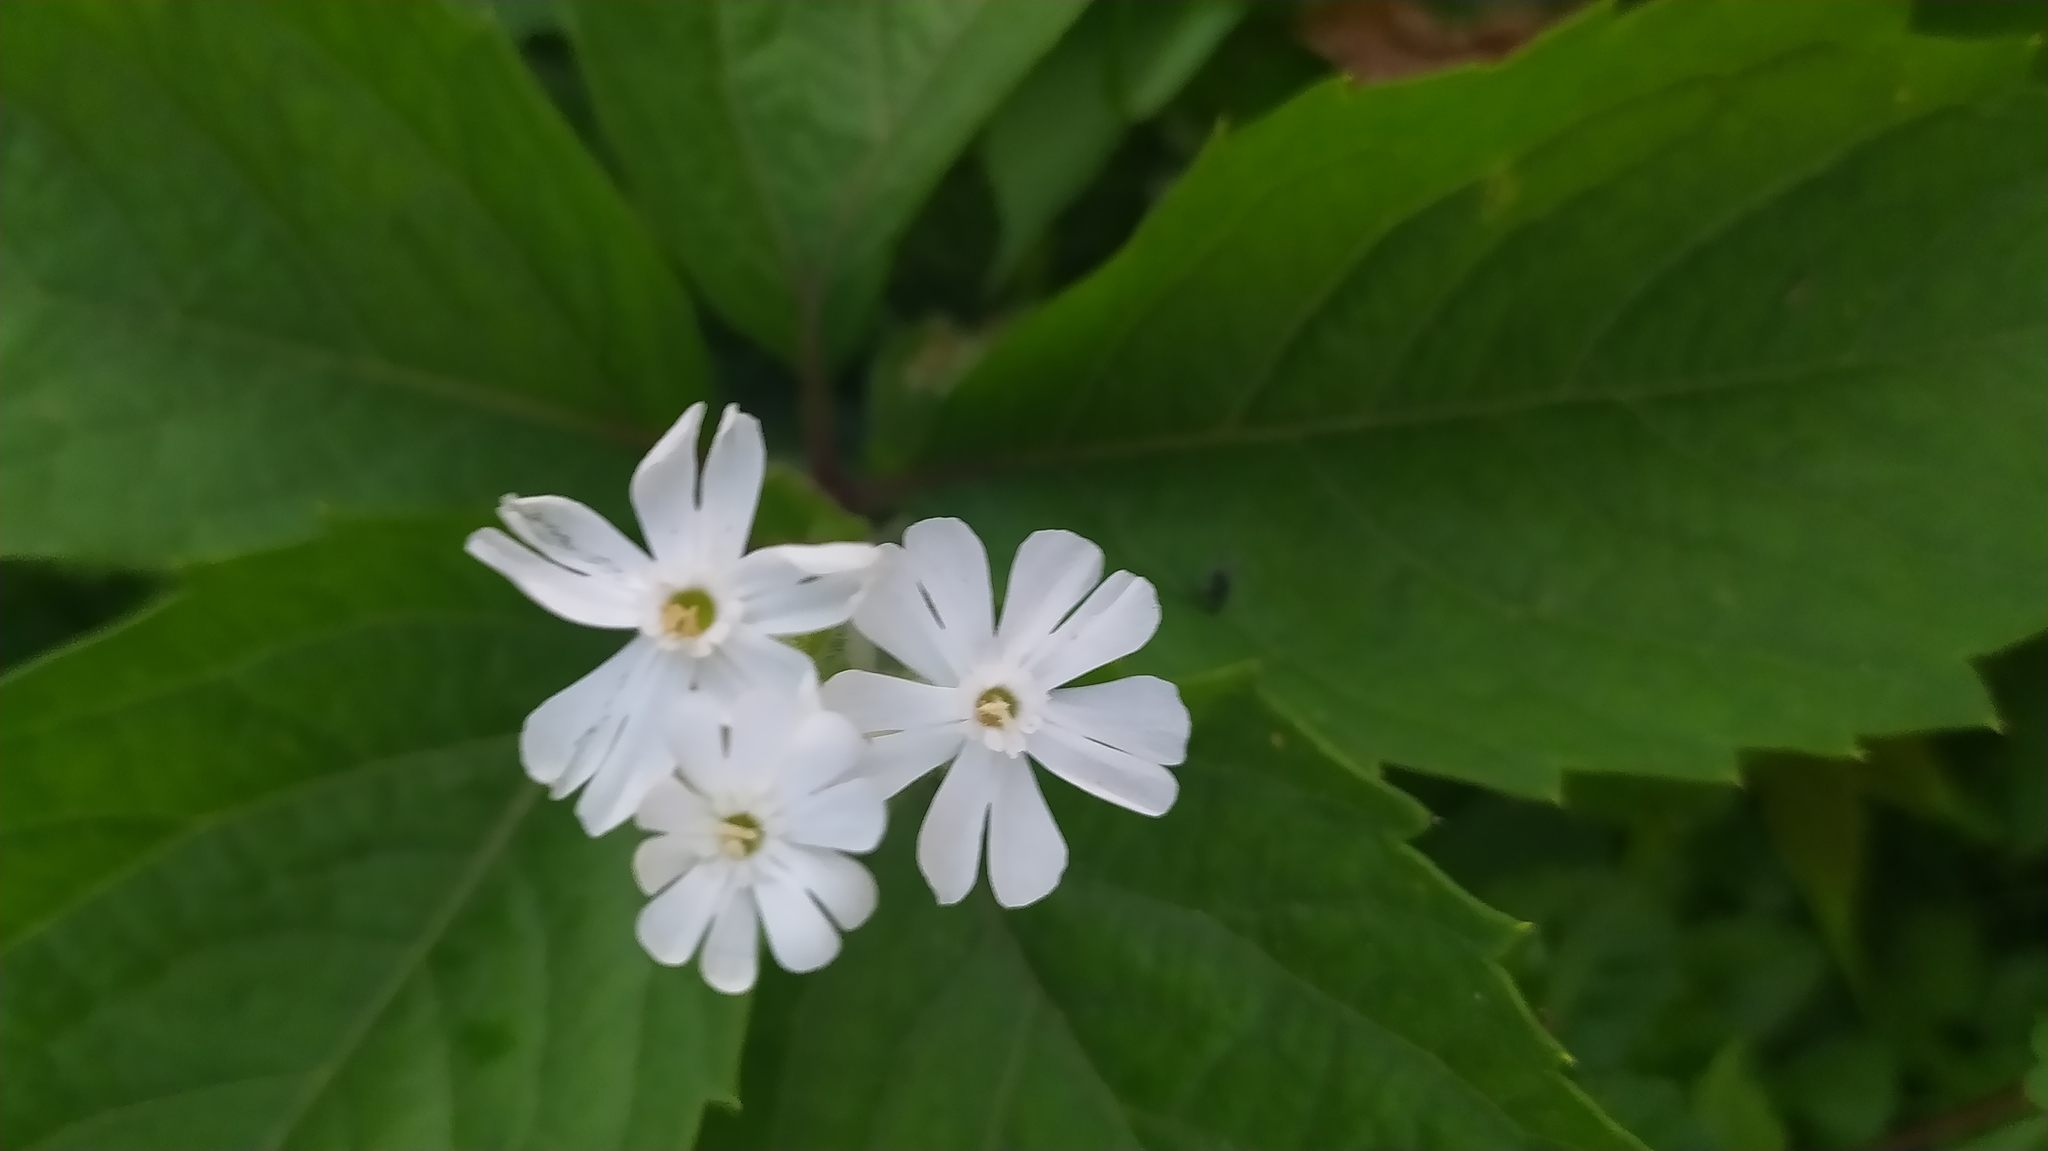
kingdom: Plantae
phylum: Tracheophyta
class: Magnoliopsida
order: Caryophyllales
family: Caryophyllaceae
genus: Silene
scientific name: Silene latifolia
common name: White campion
